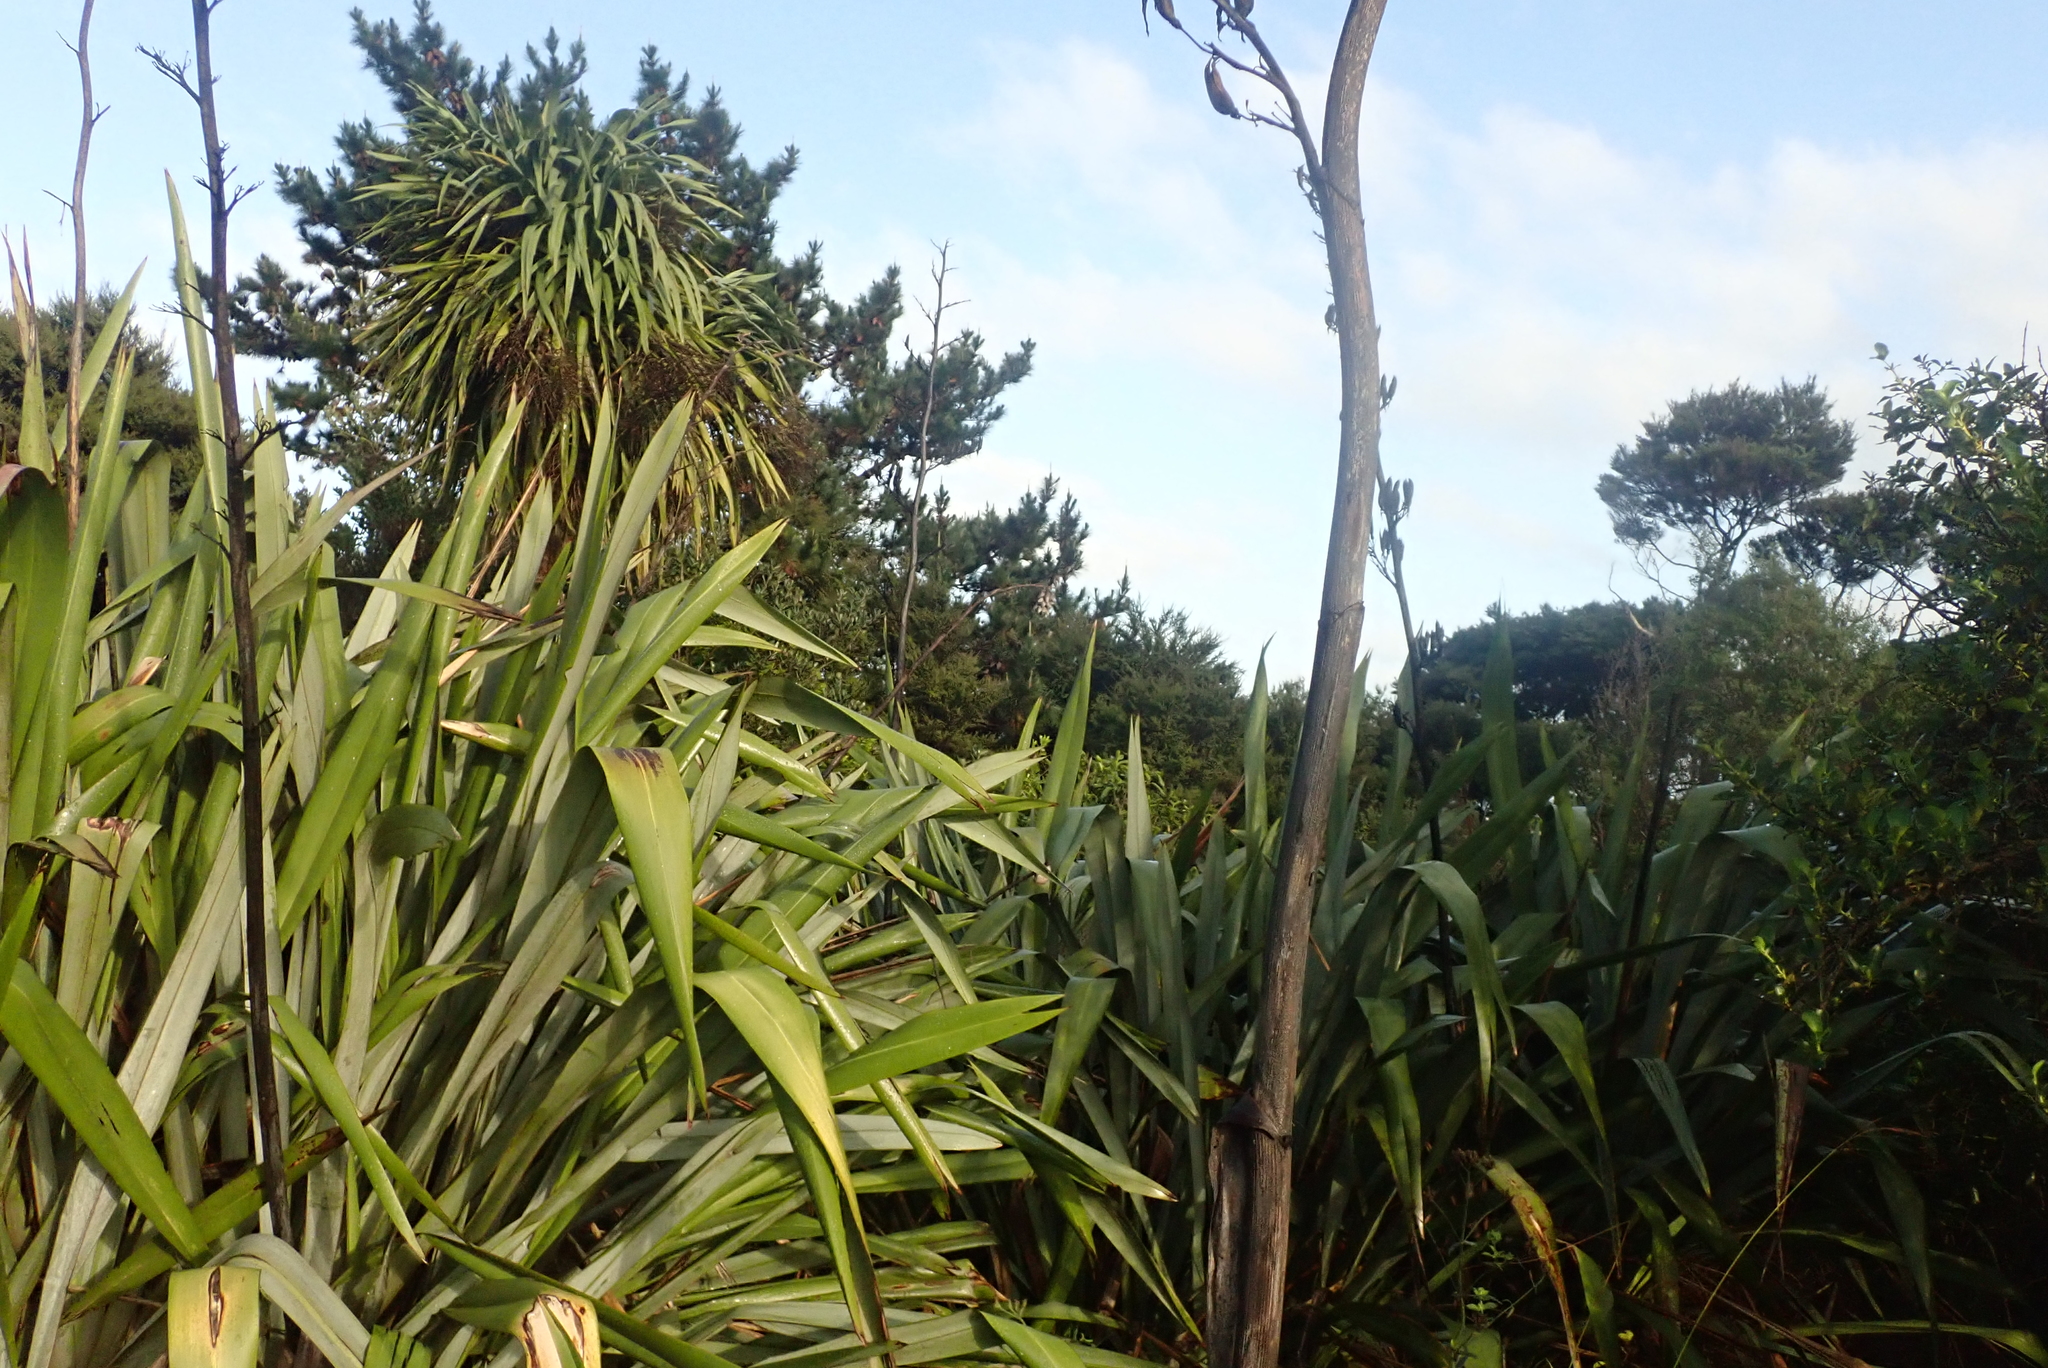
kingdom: Plantae
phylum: Tracheophyta
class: Liliopsida
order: Asparagales
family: Asparagaceae
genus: Cordyline
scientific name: Cordyline australis
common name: Cabbage-palm
